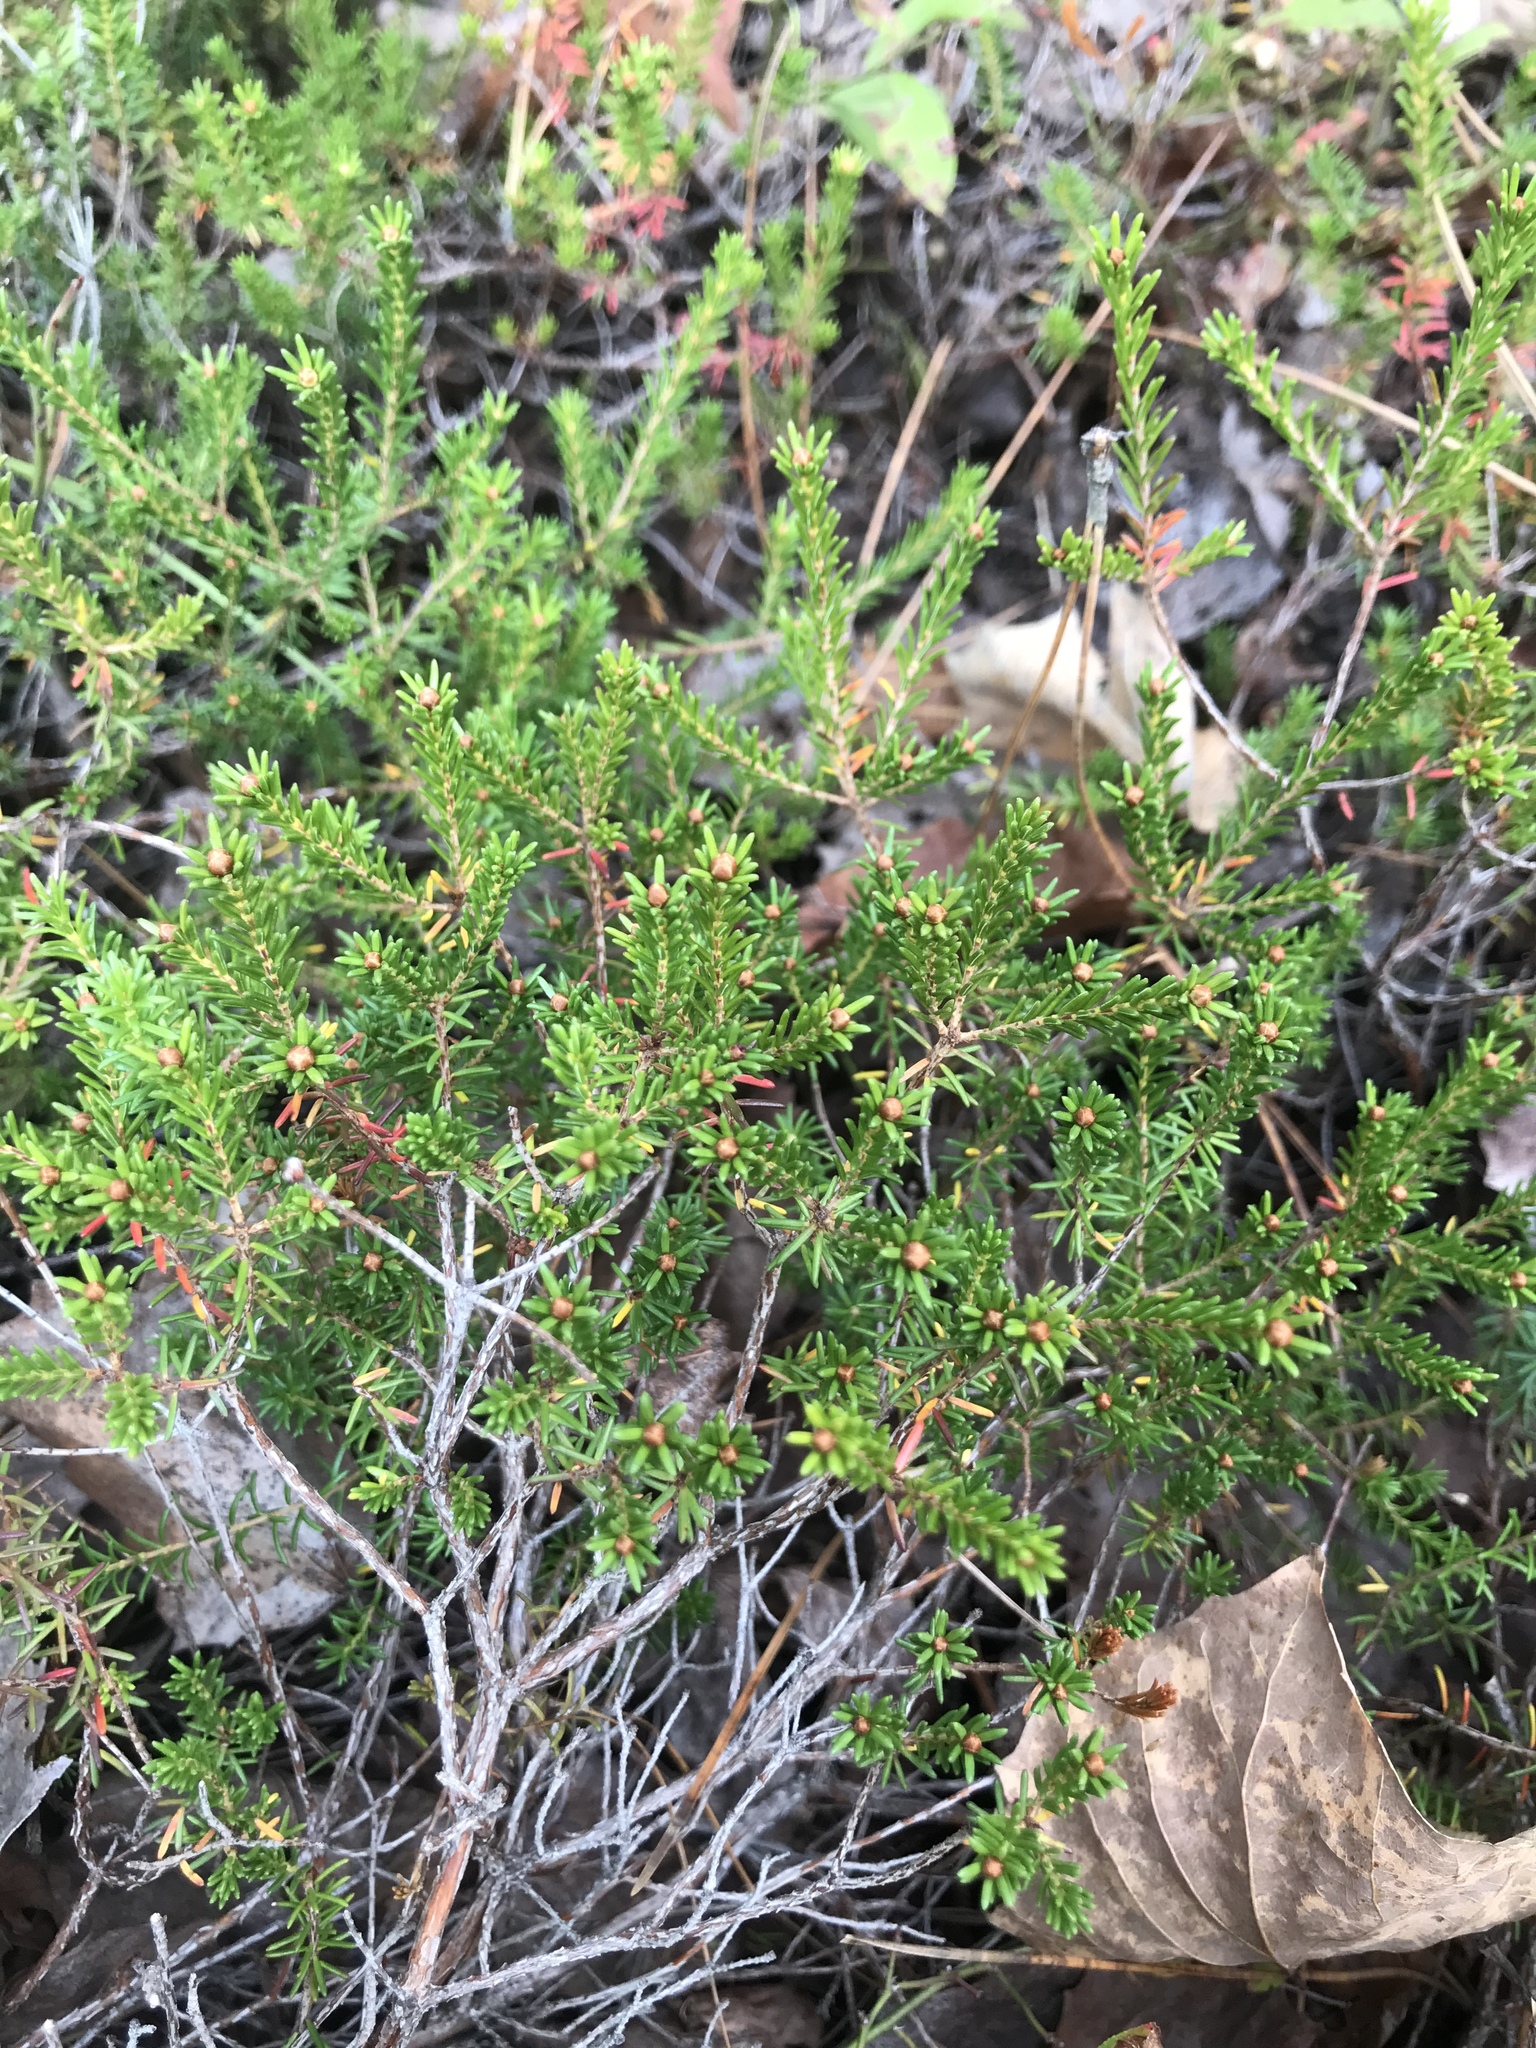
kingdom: Plantae
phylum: Tracheophyta
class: Magnoliopsida
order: Ericales
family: Ericaceae
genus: Corema
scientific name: Corema conradii
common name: Broom-crowberry
